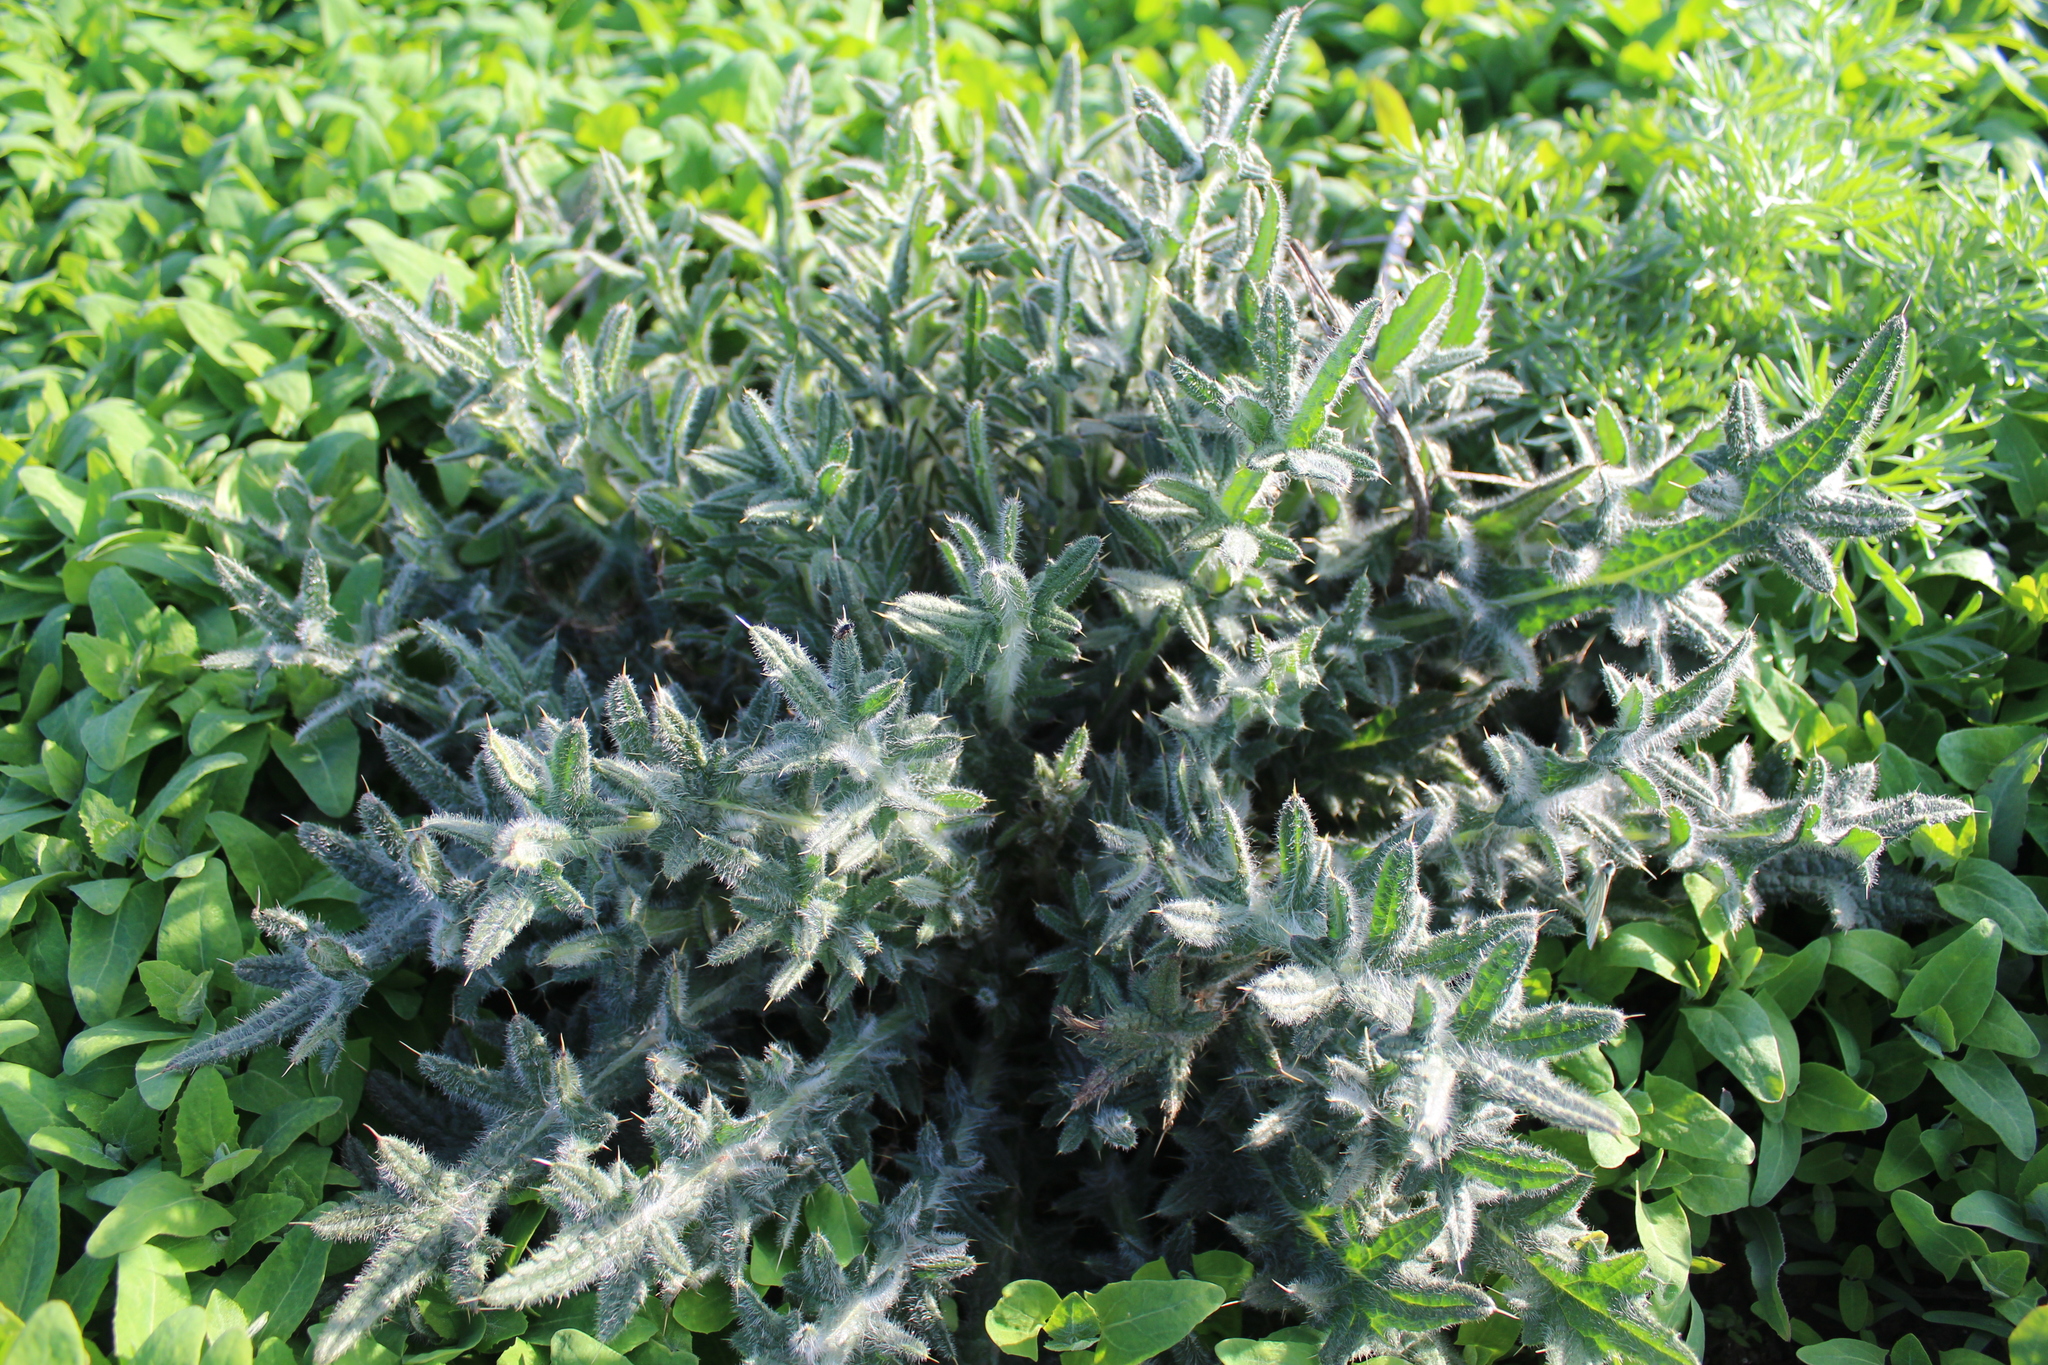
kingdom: Plantae
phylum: Tracheophyta
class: Magnoliopsida
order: Asterales
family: Asteraceae
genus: Cirsium
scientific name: Cirsium vulgare
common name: Bull thistle
